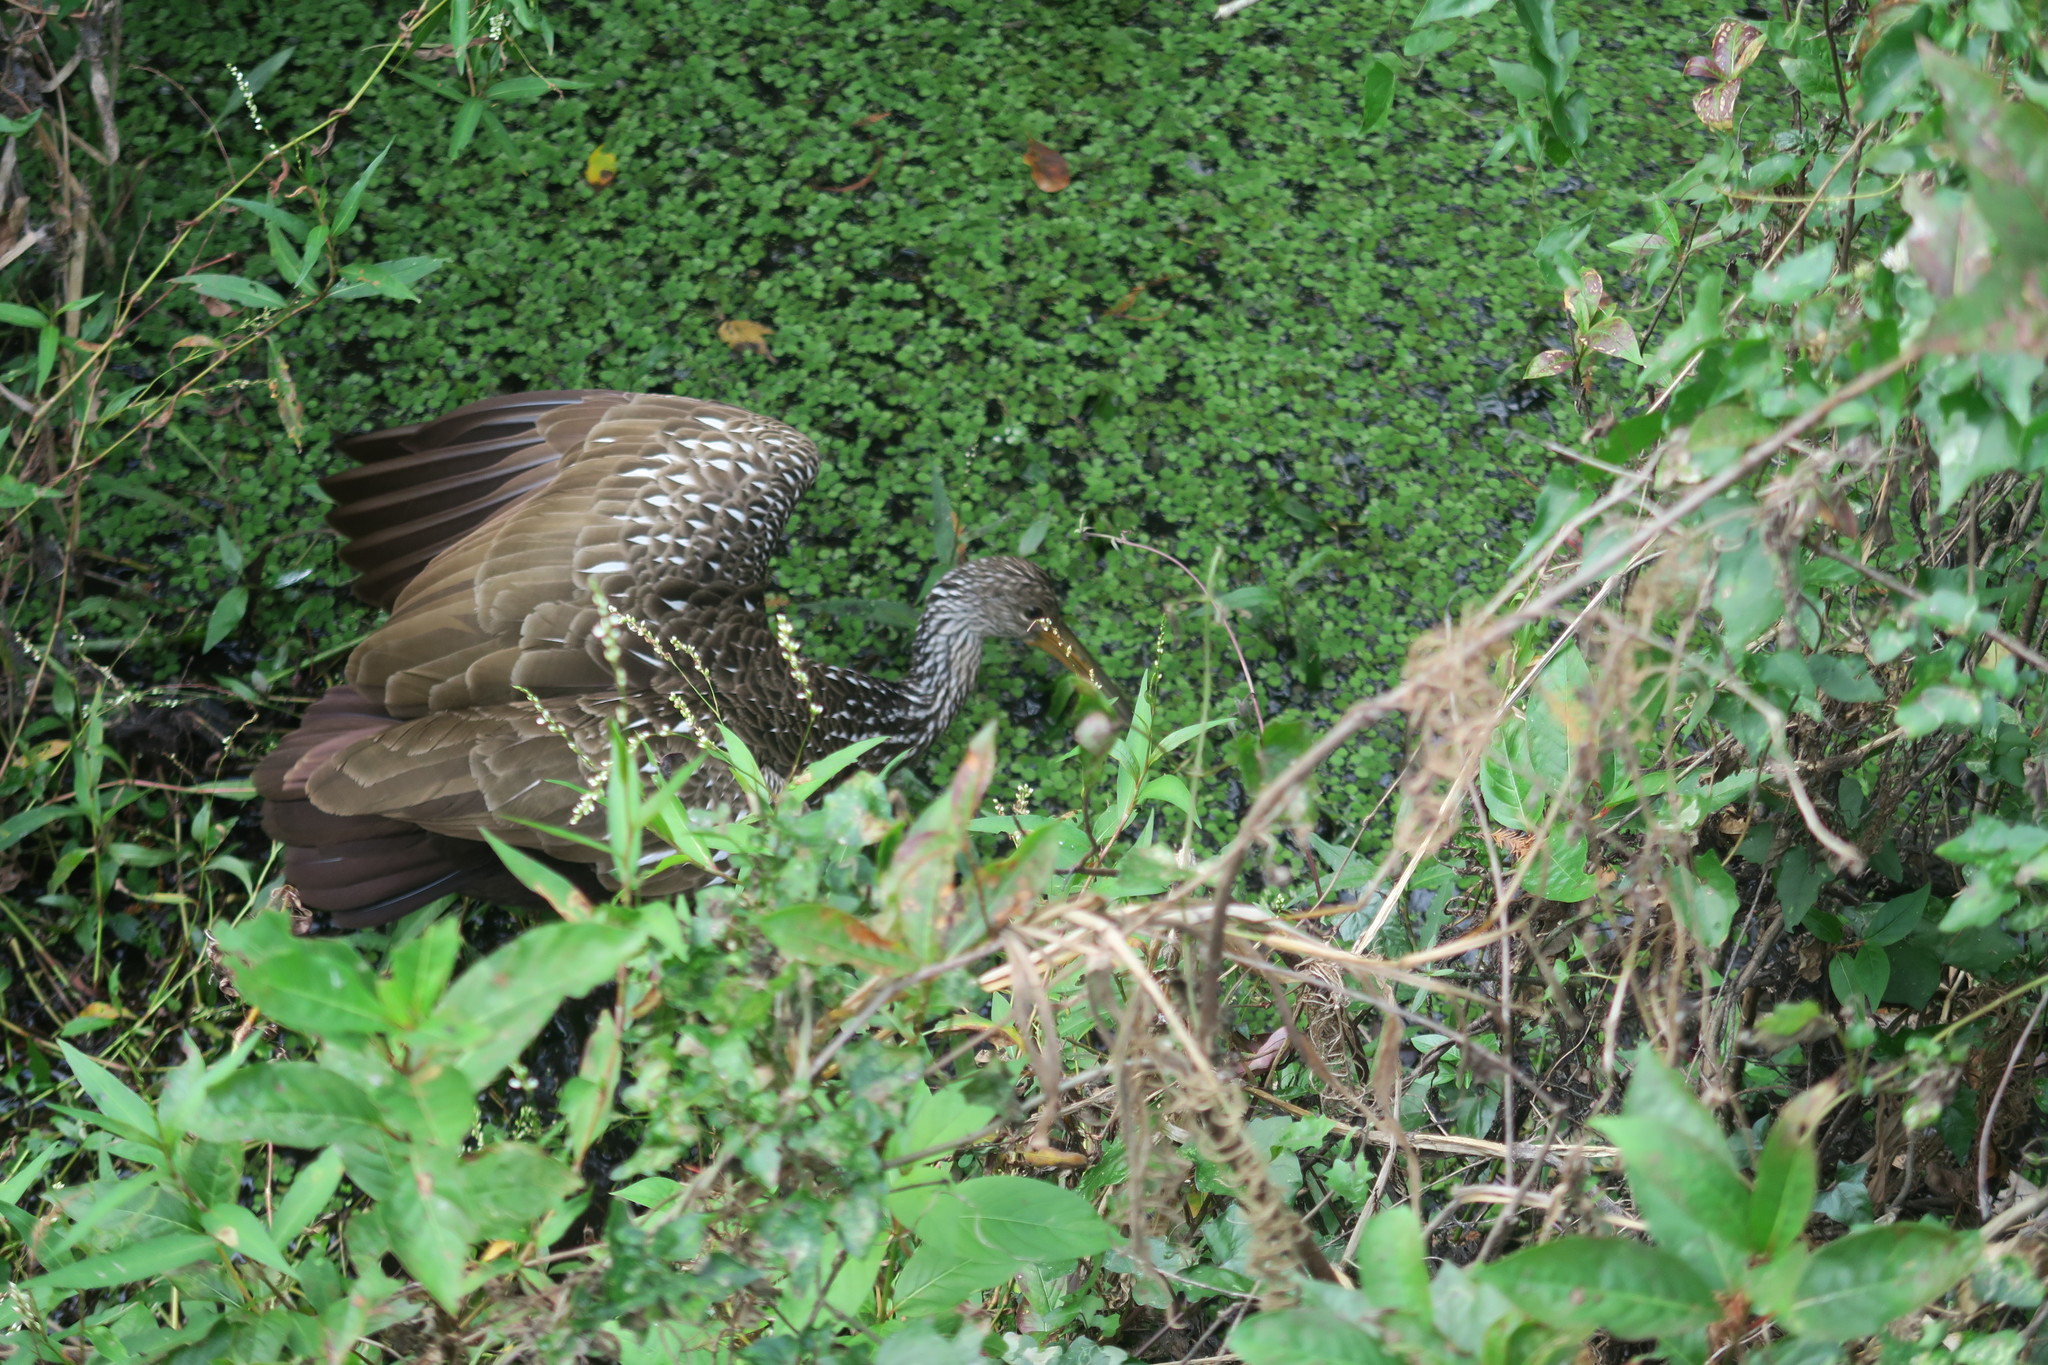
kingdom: Animalia
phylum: Chordata
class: Aves
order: Gruiformes
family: Aramidae
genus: Aramus
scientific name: Aramus guarauna
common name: Limpkin
